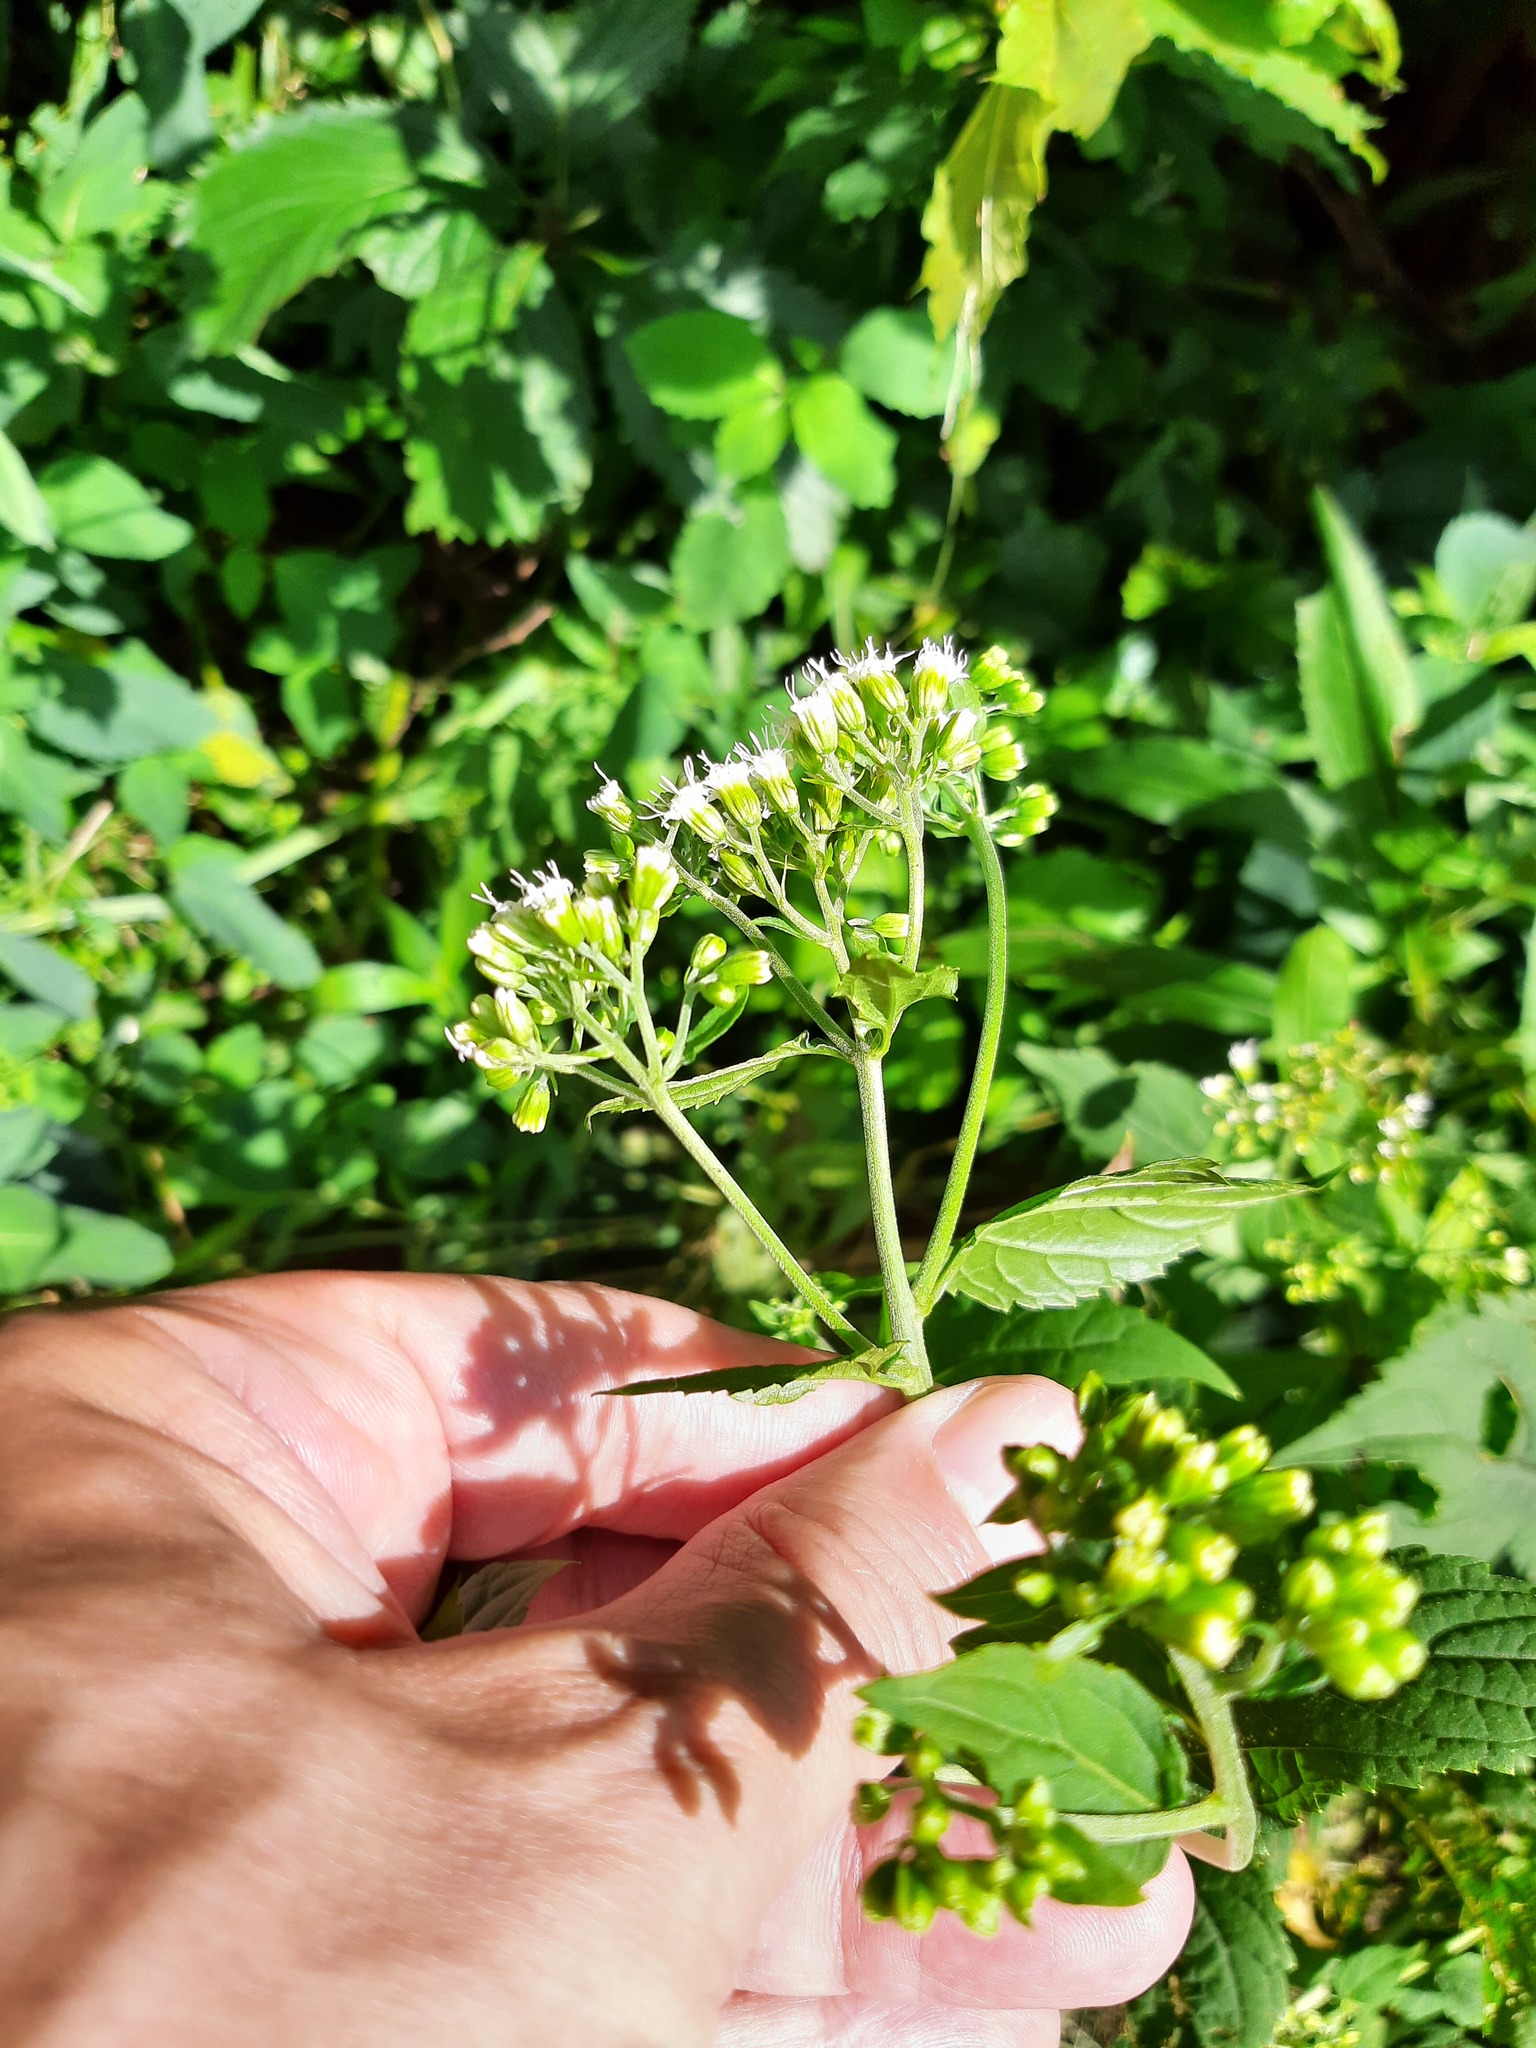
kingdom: Plantae
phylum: Tracheophyta
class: Magnoliopsida
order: Asterales
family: Asteraceae
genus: Ageratina
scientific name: Ageratina altissima
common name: White snakeroot
